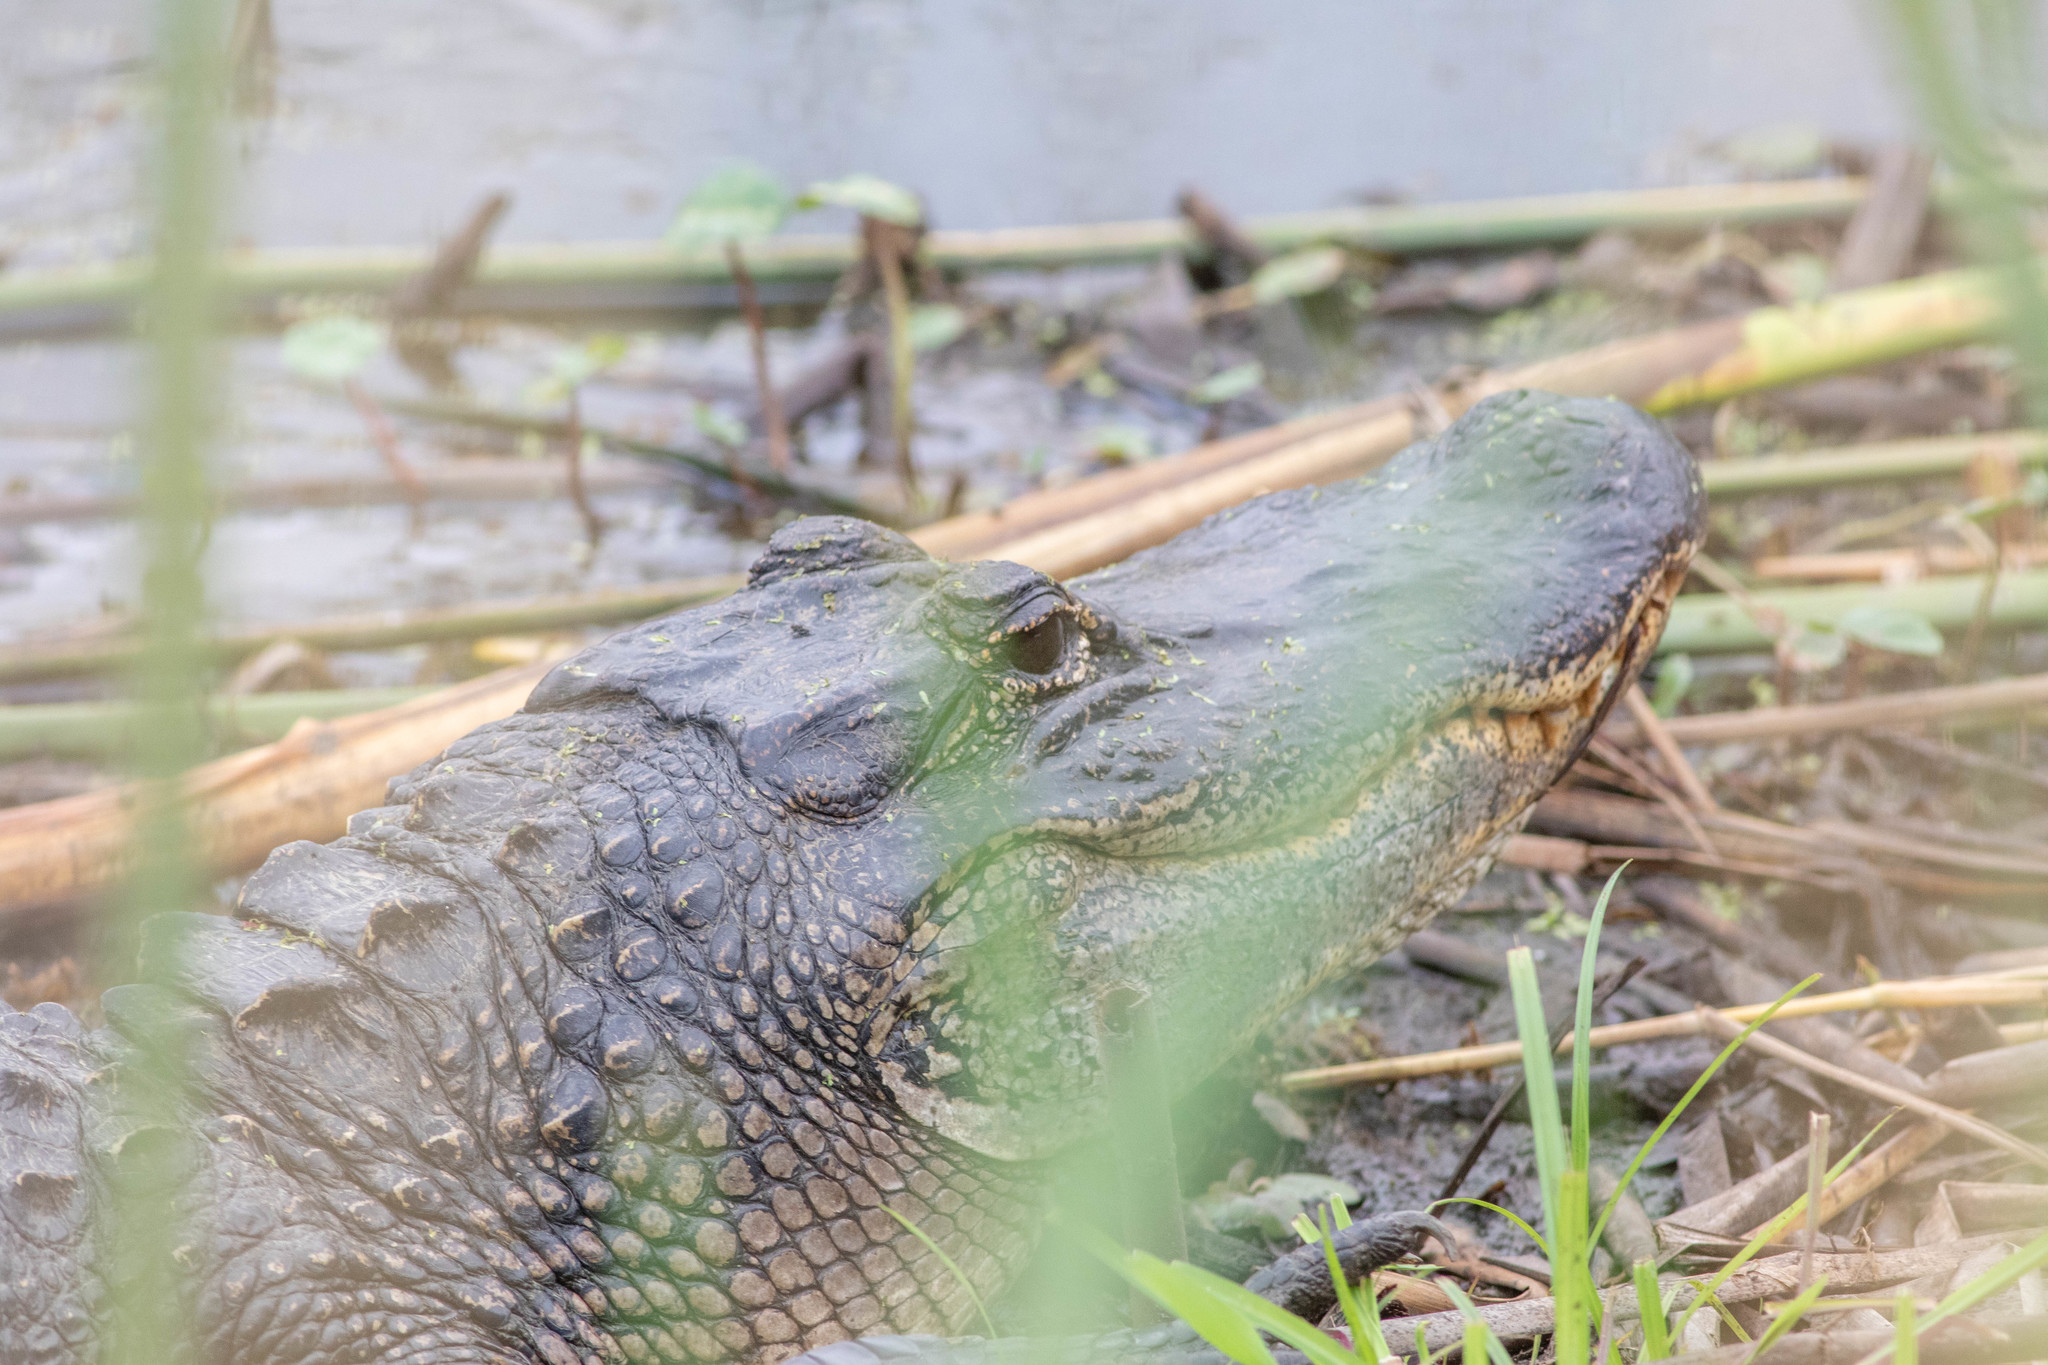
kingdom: Animalia
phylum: Chordata
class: Crocodylia
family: Alligatoridae
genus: Alligator
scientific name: Alligator mississippiensis
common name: American alligator
